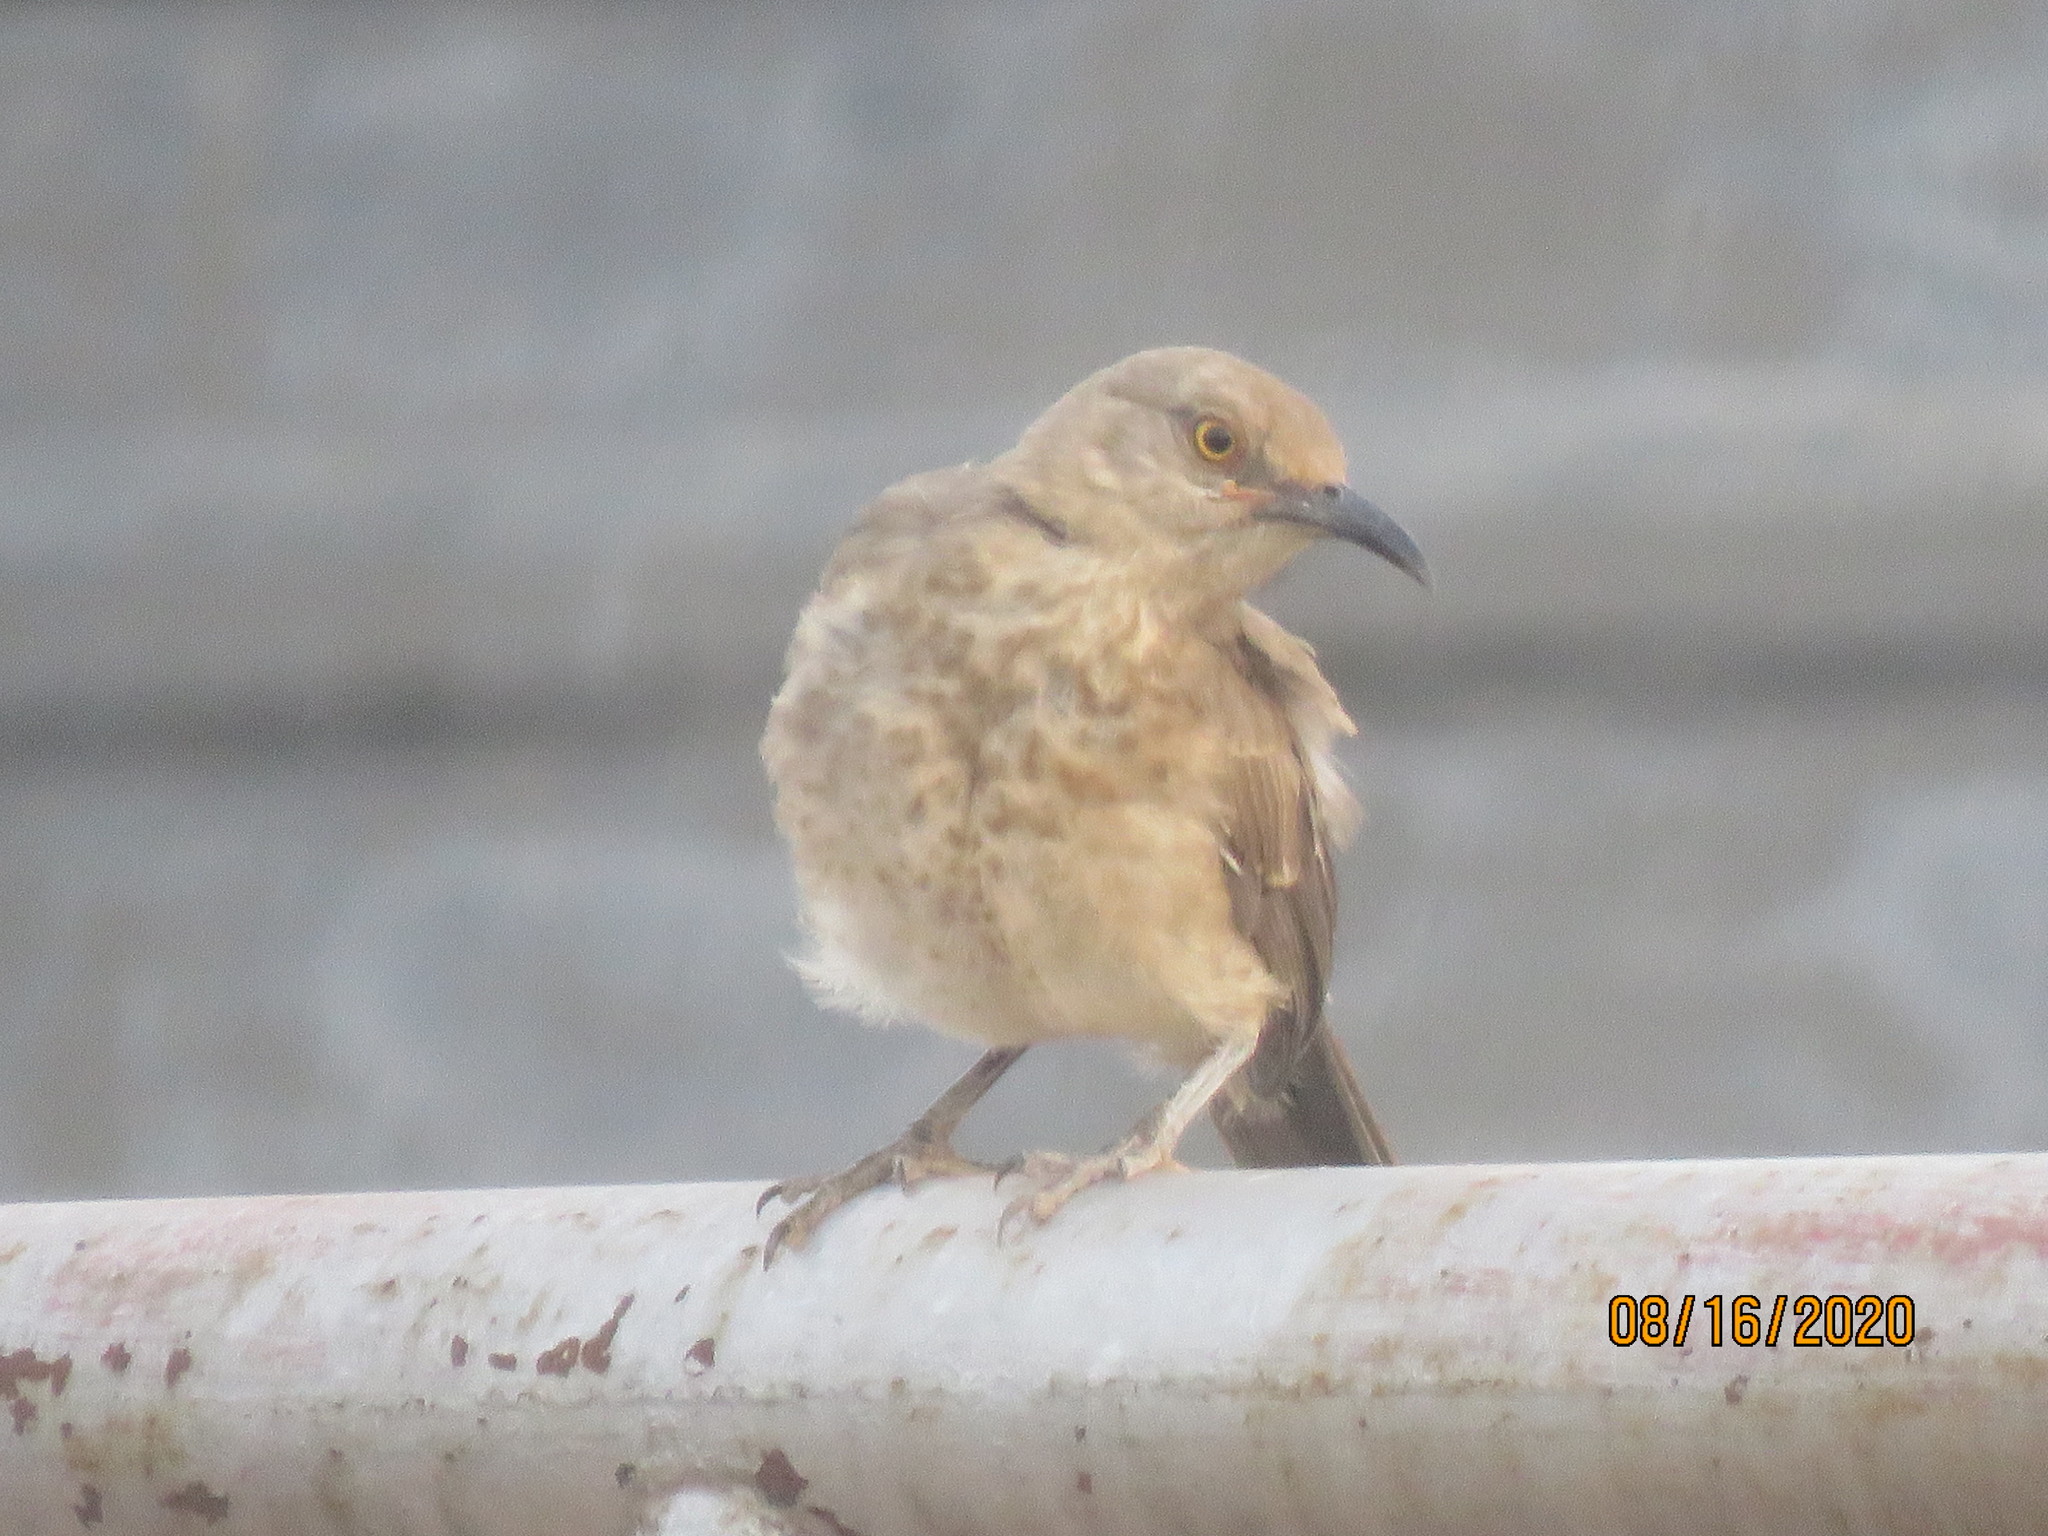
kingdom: Animalia
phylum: Chordata
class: Aves
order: Passeriformes
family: Mimidae
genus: Toxostoma
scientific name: Toxostoma curvirostre
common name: Curve-billed thrasher
